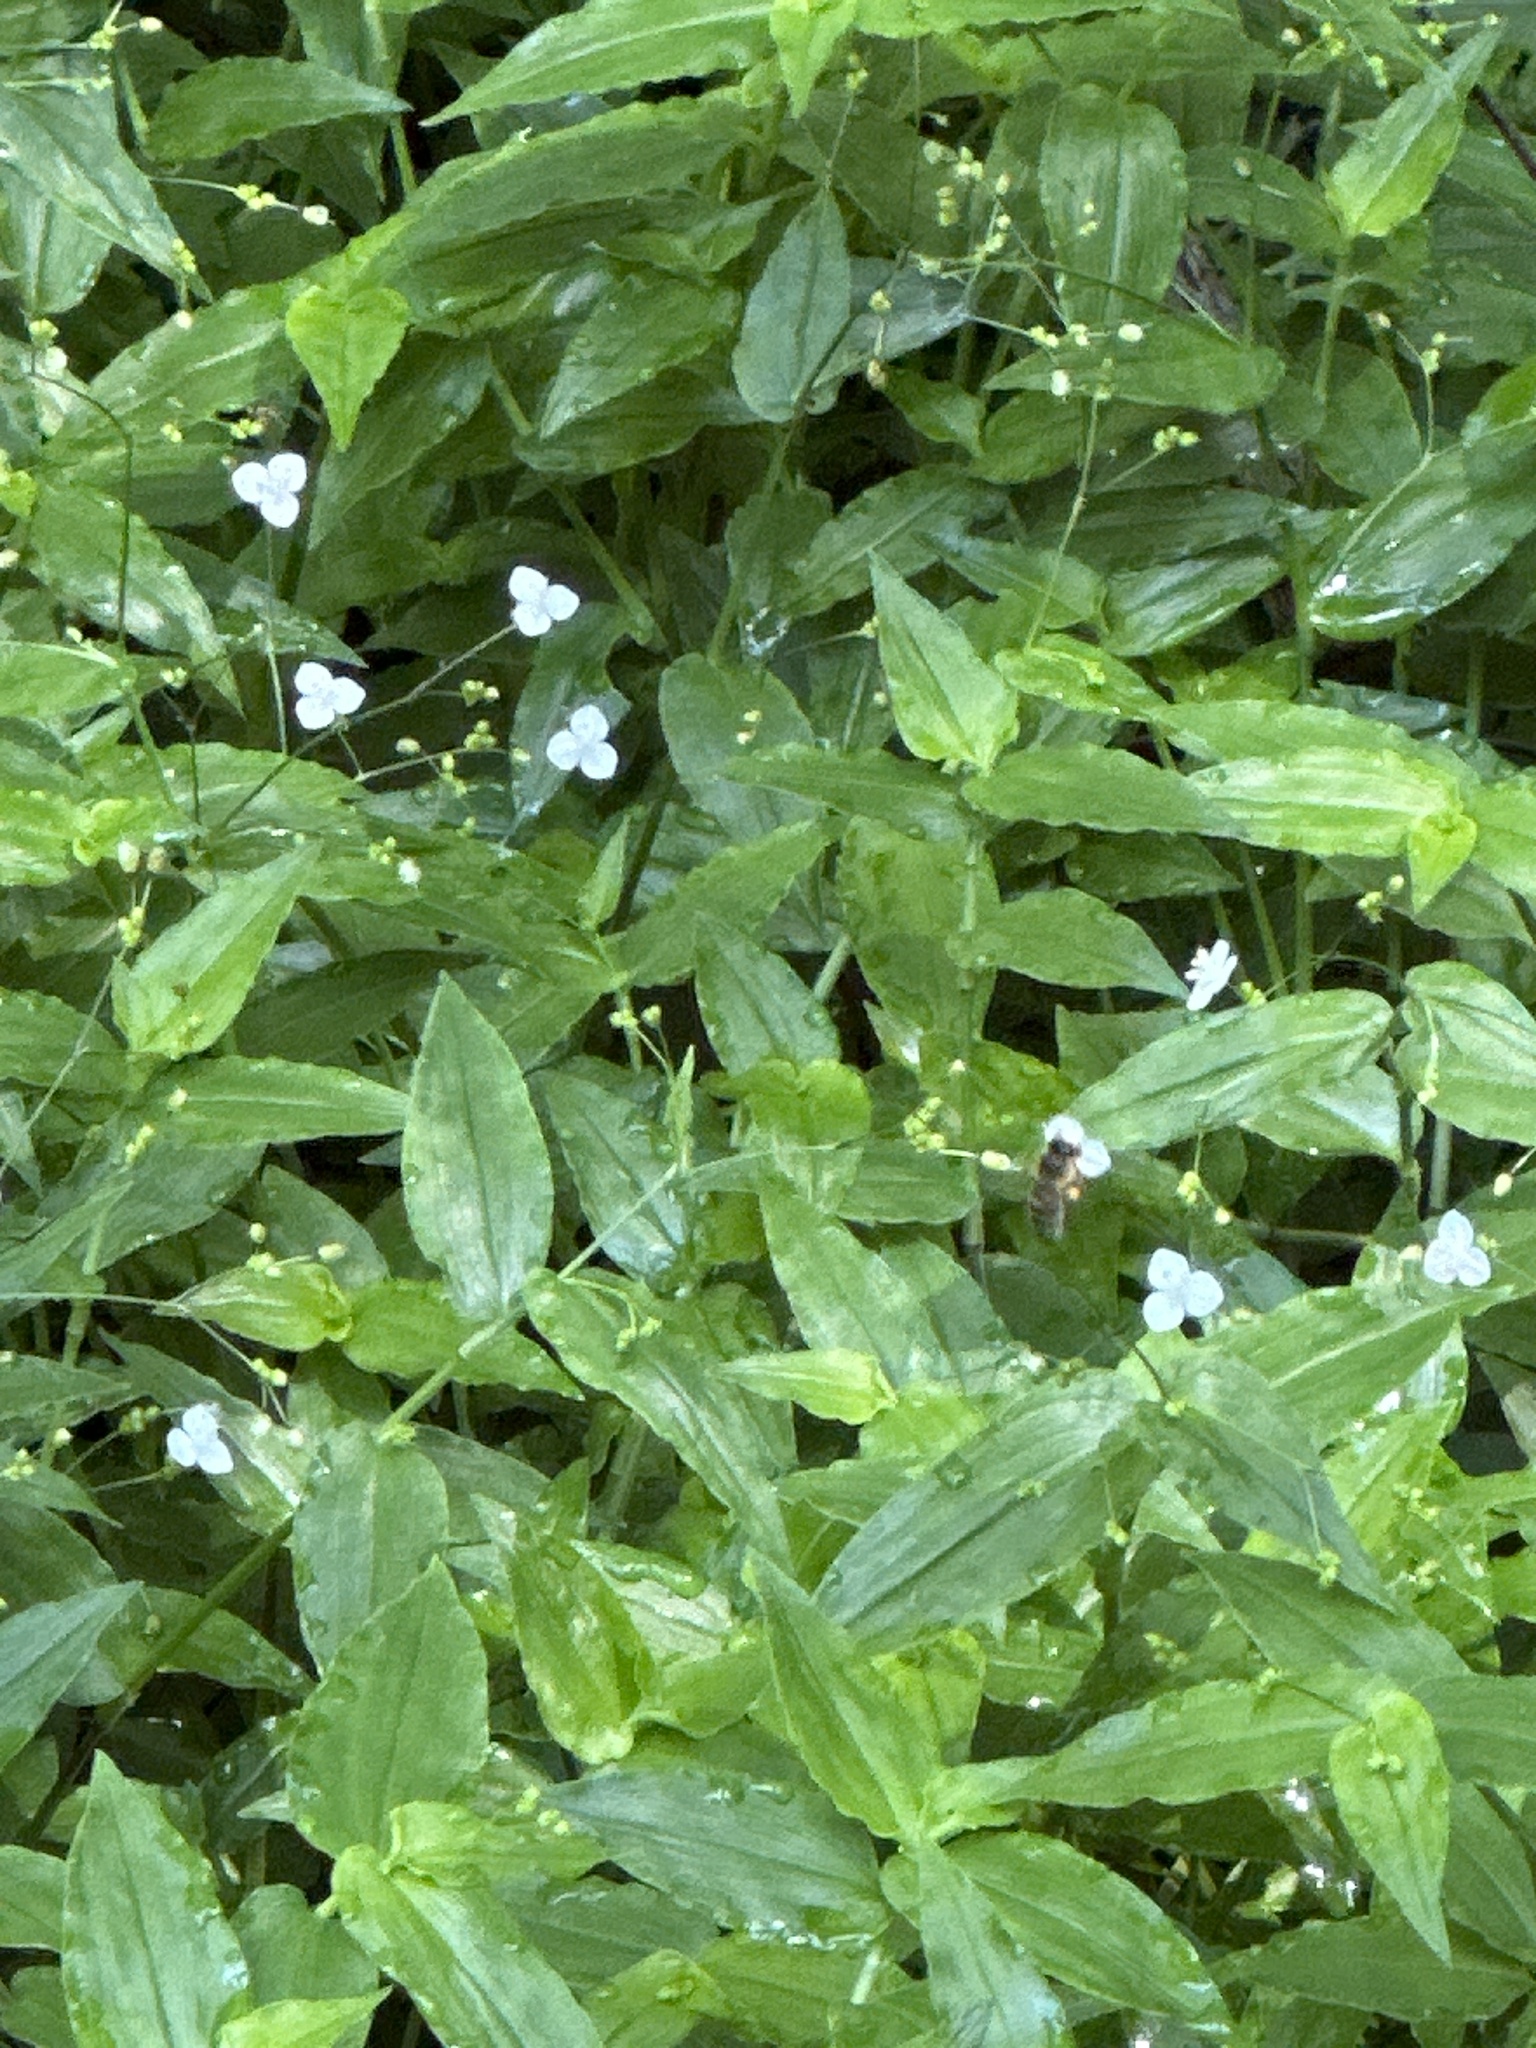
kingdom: Animalia
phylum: Arthropoda
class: Insecta
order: Hymenoptera
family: Apidae
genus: Apis
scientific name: Apis mellifera
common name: Honey bee
